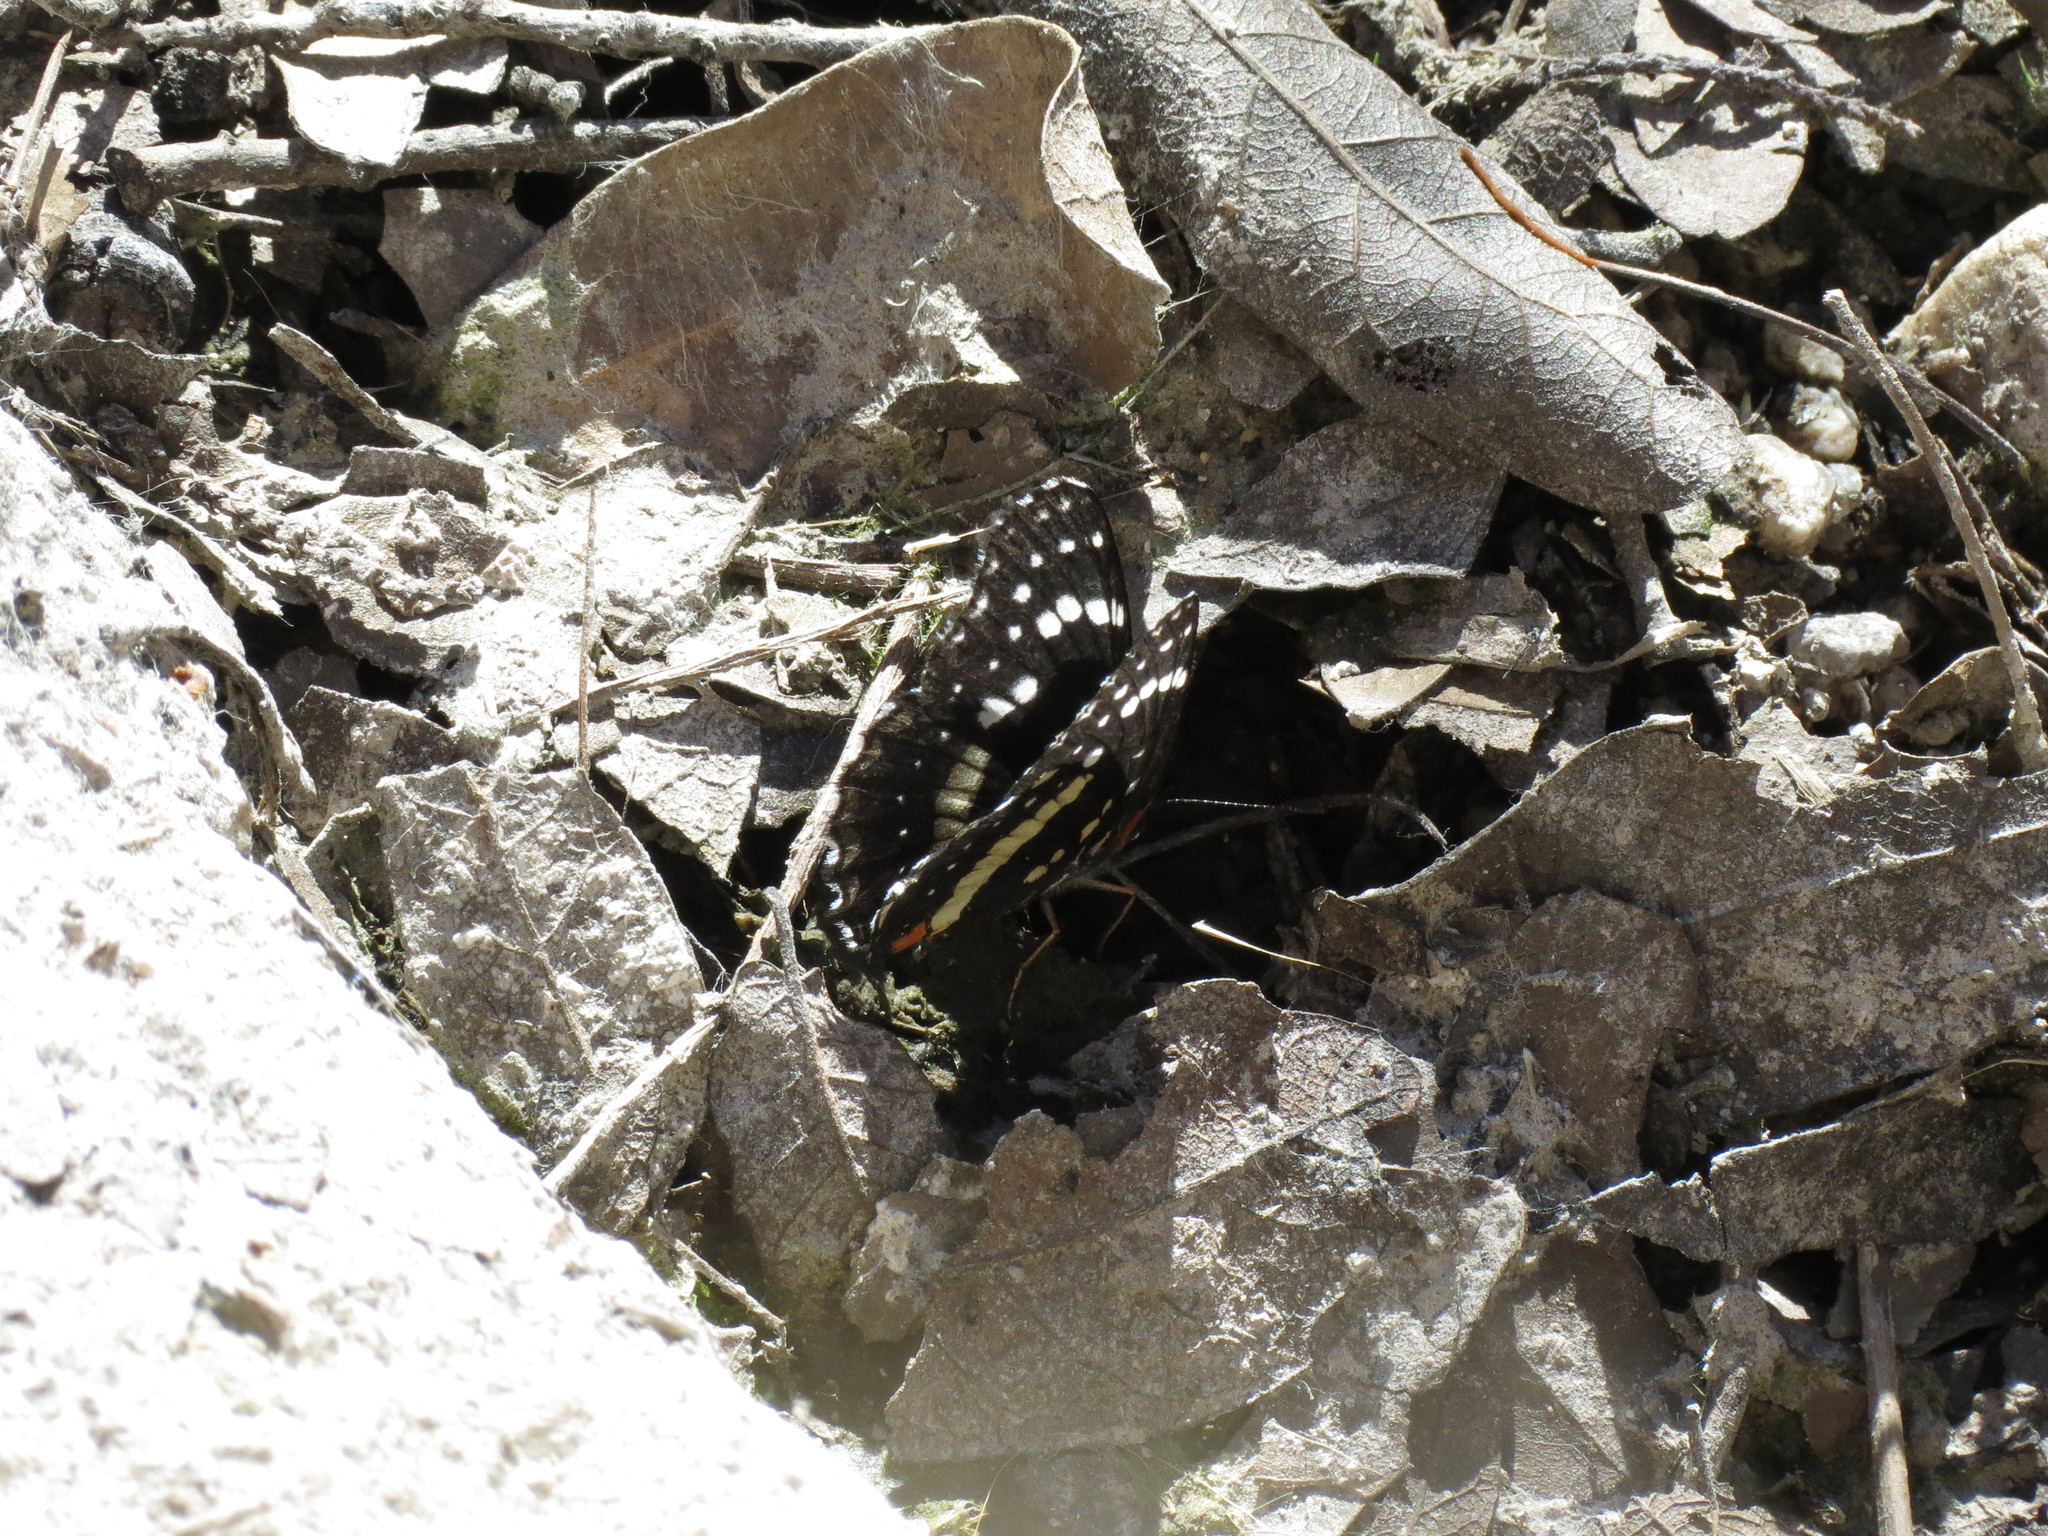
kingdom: Animalia
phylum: Arthropoda
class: Insecta
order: Lepidoptera
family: Nymphalidae
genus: Chlosyne
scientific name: Chlosyne lacinia
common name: Bordered patch
